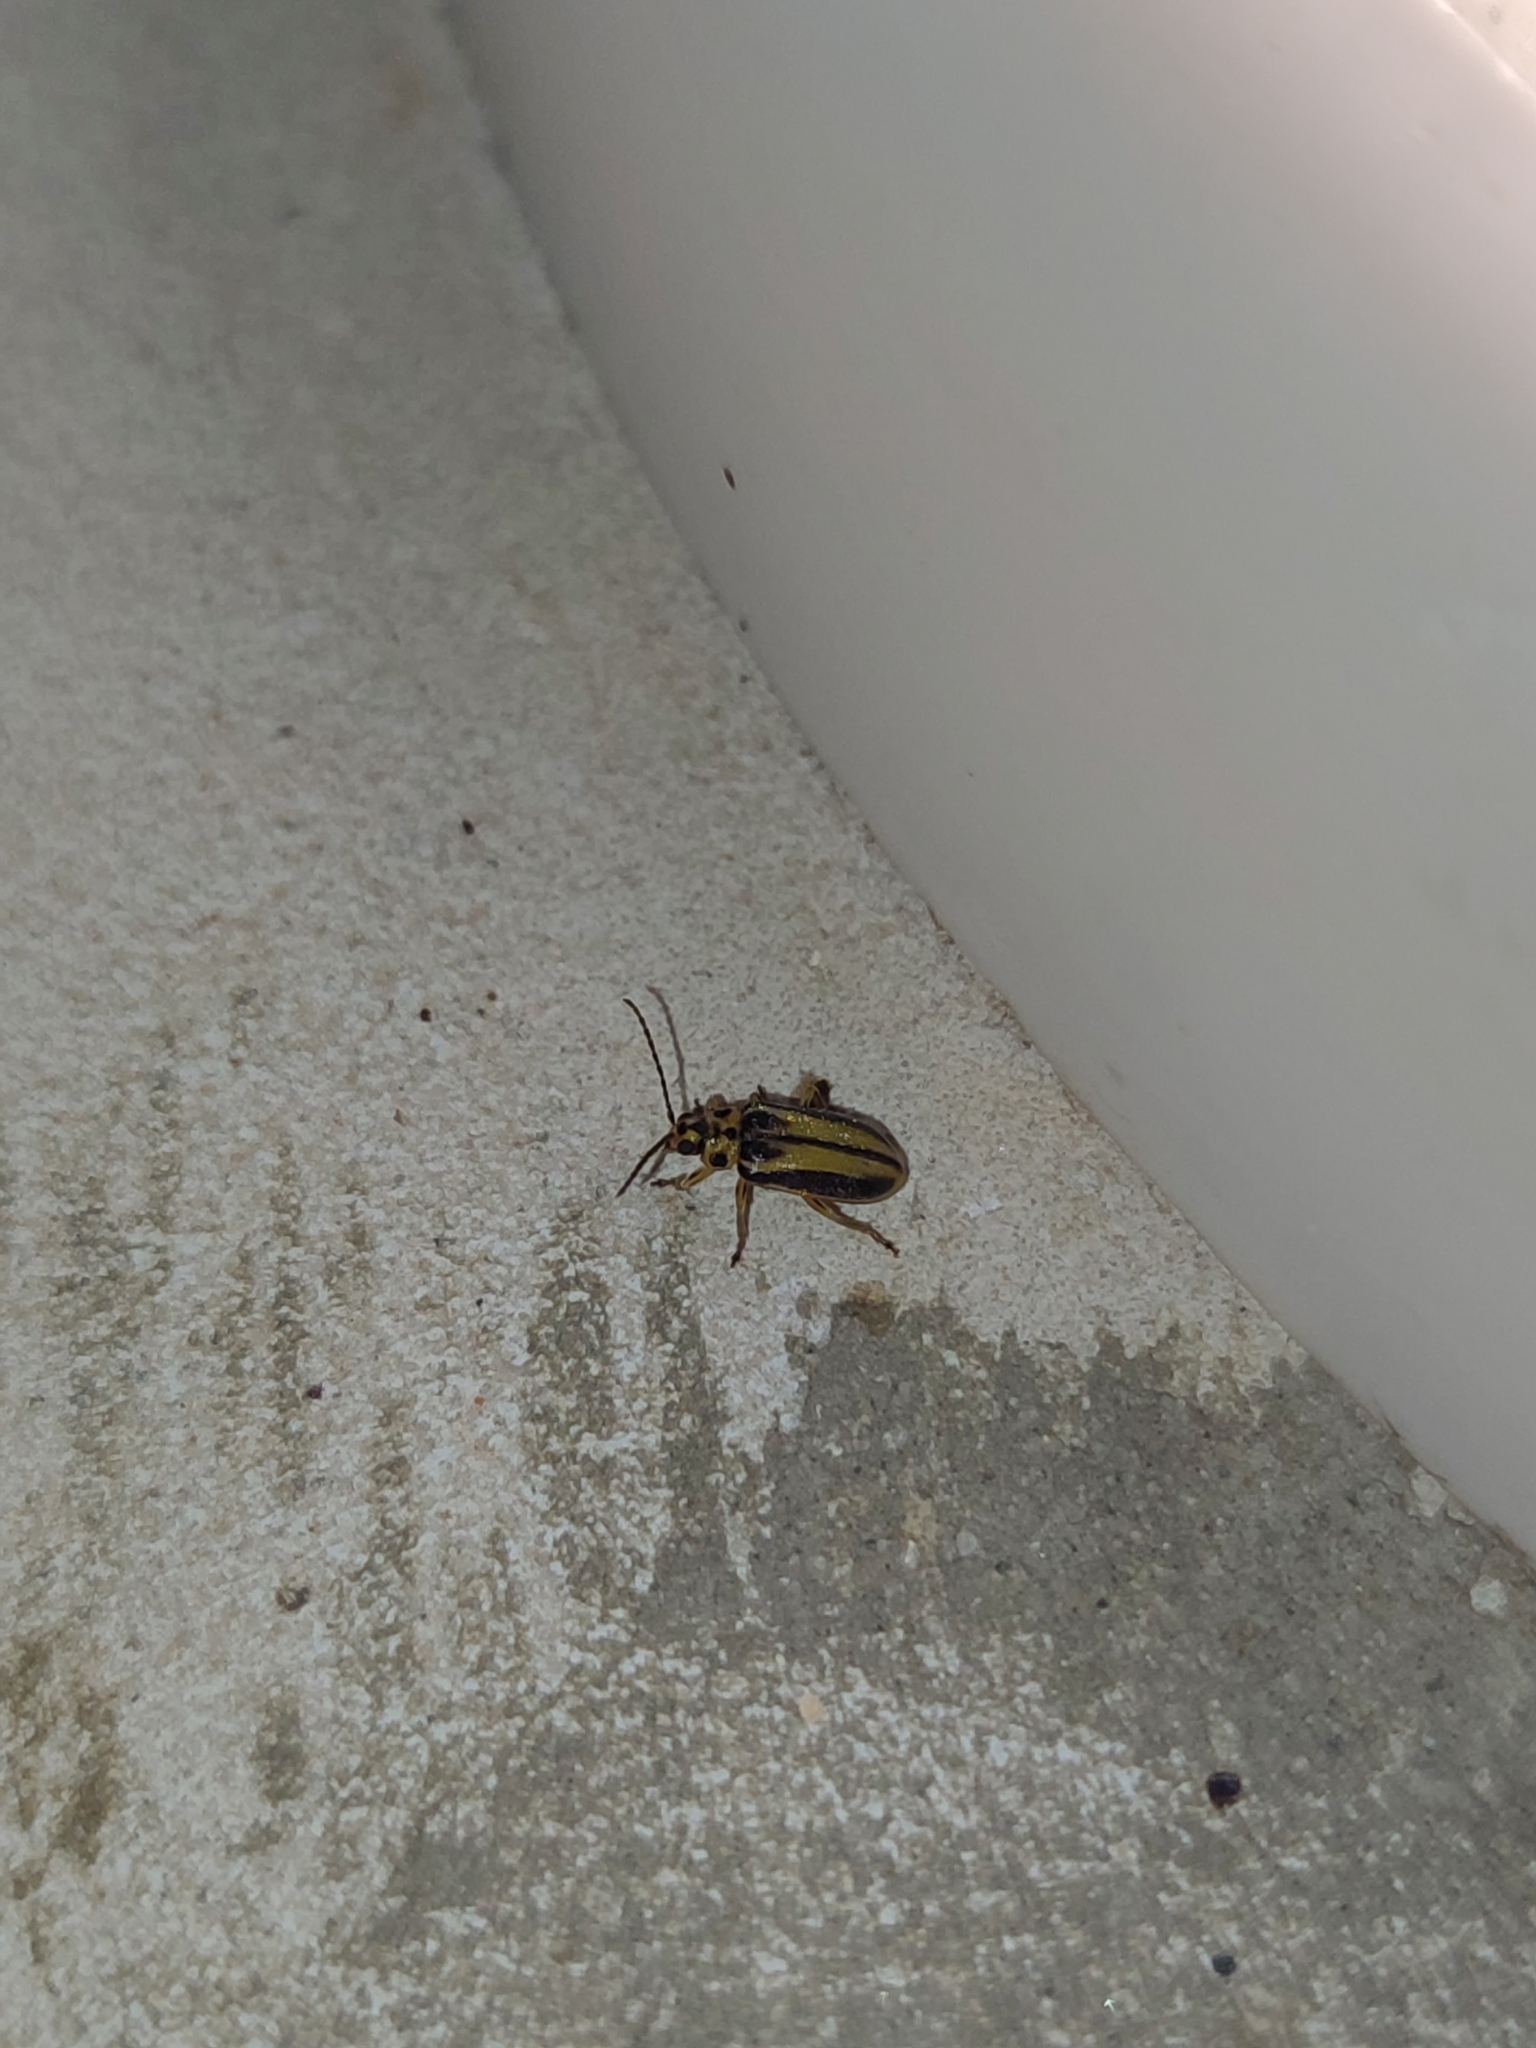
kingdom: Animalia
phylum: Arthropoda
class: Insecta
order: Coleoptera
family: Chrysomelidae
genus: Xanthogaleruca
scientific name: Xanthogaleruca luteola
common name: Elm leaf beetle
